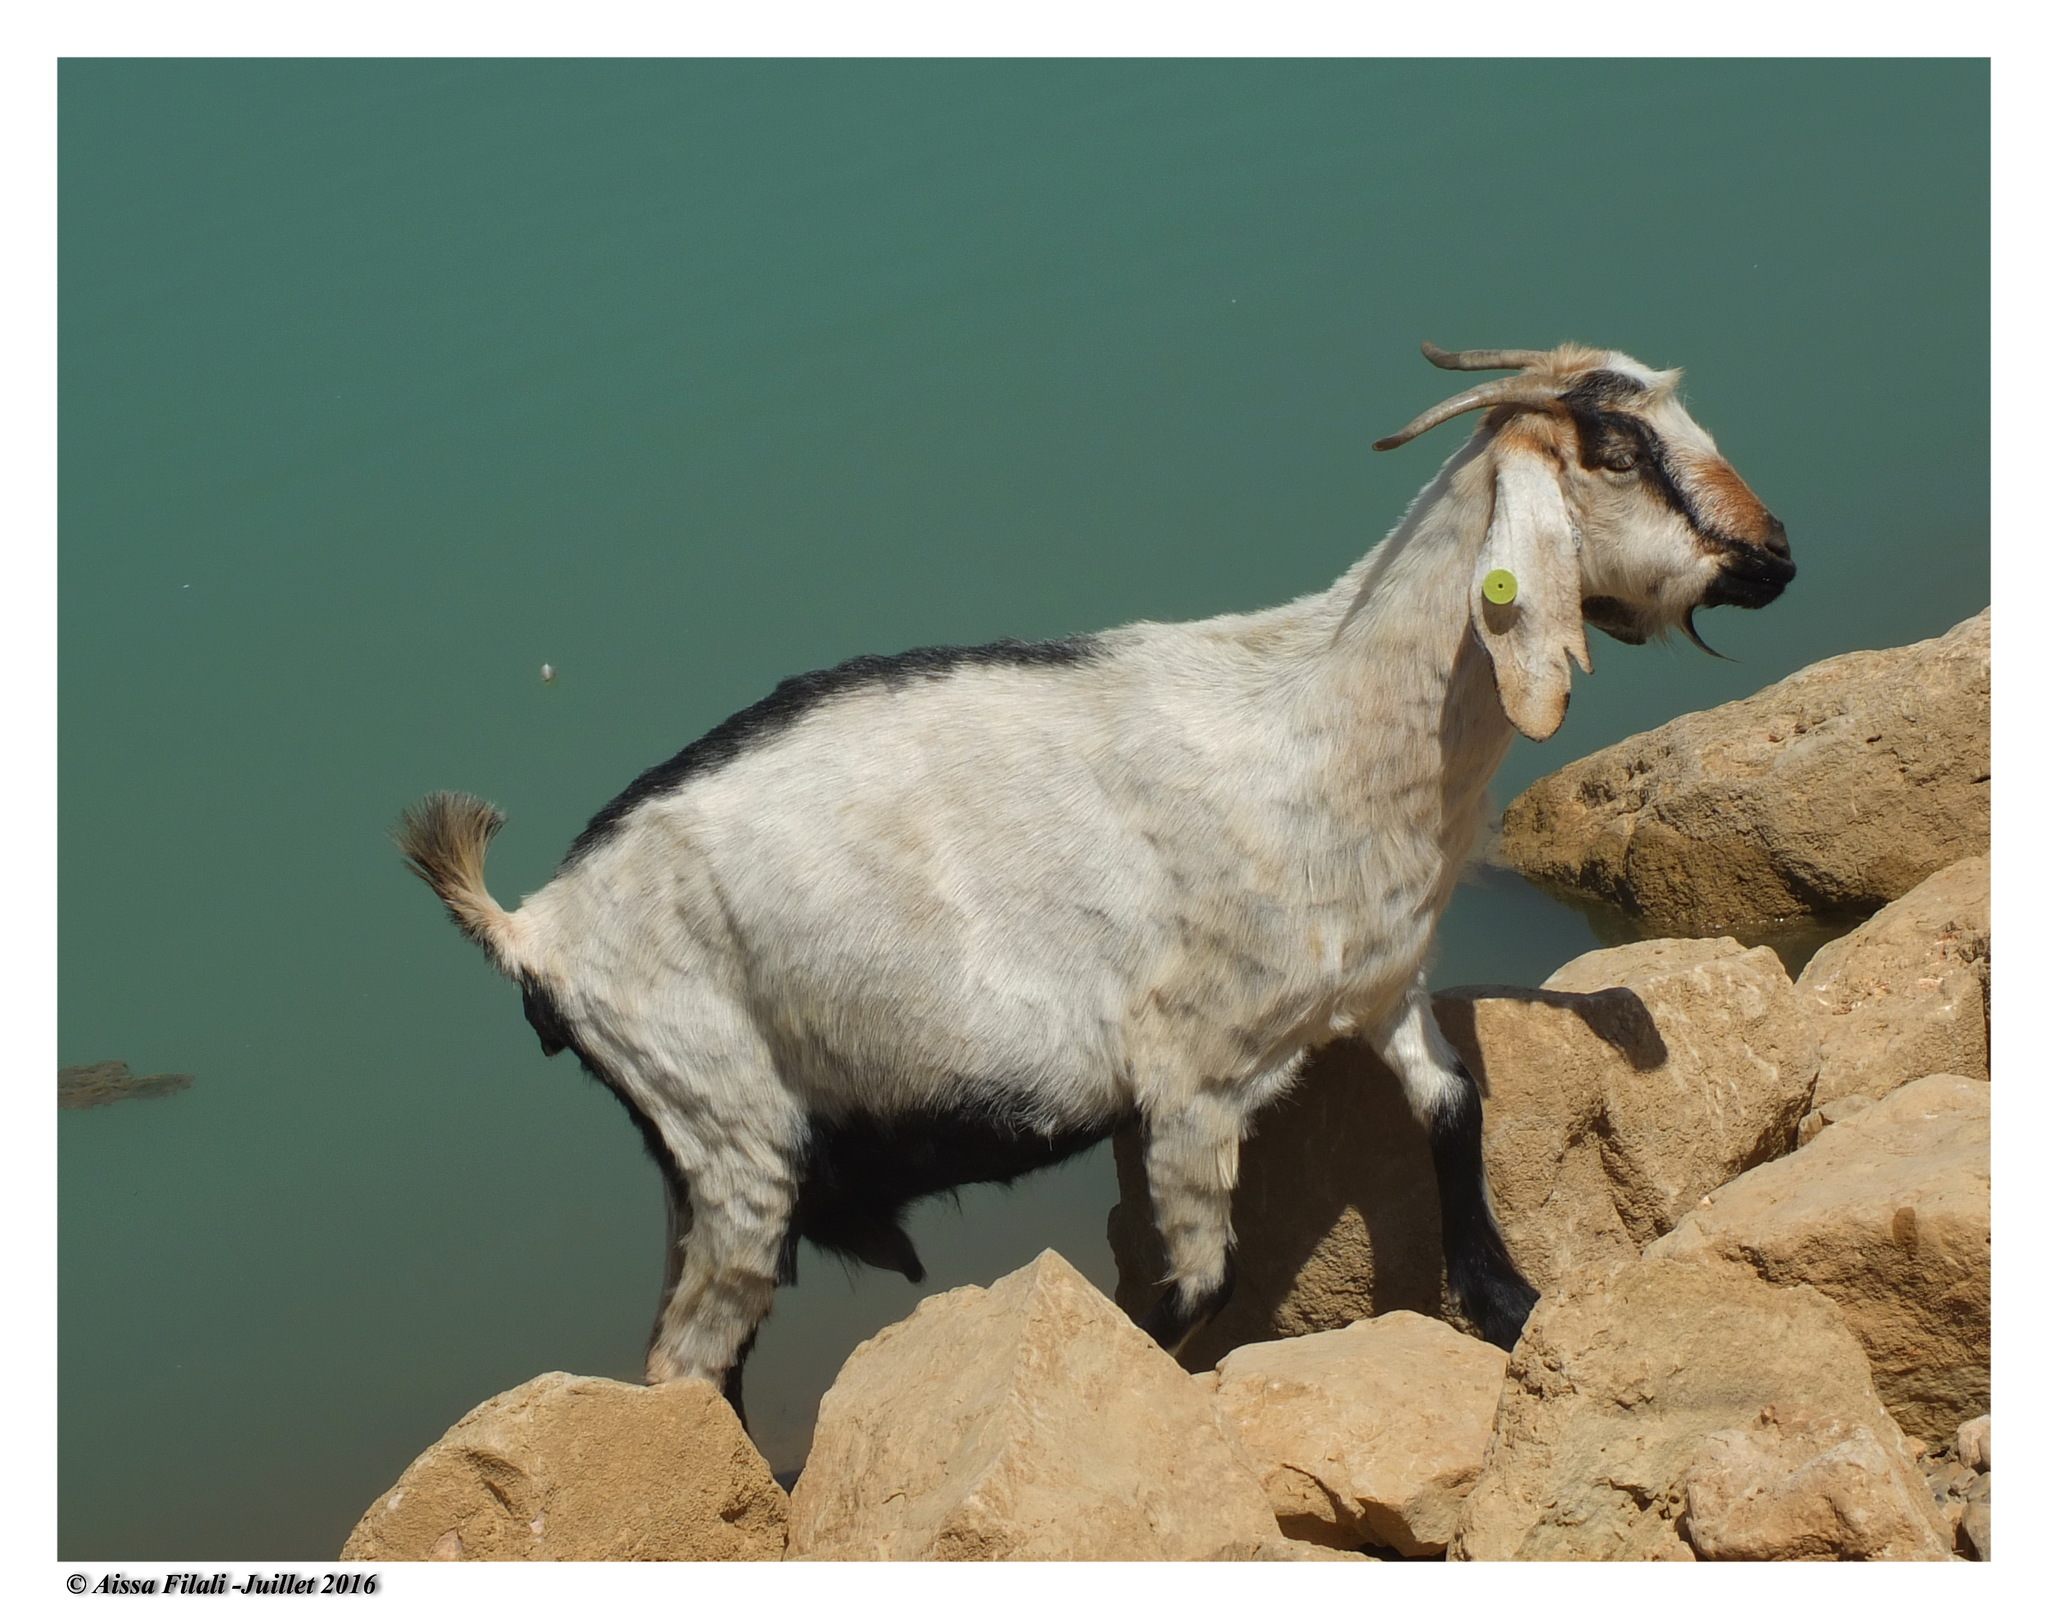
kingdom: Animalia
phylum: Chordata
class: Mammalia
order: Artiodactyla
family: Bovidae
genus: Capra
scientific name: Capra hircus
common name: Domestic goat
